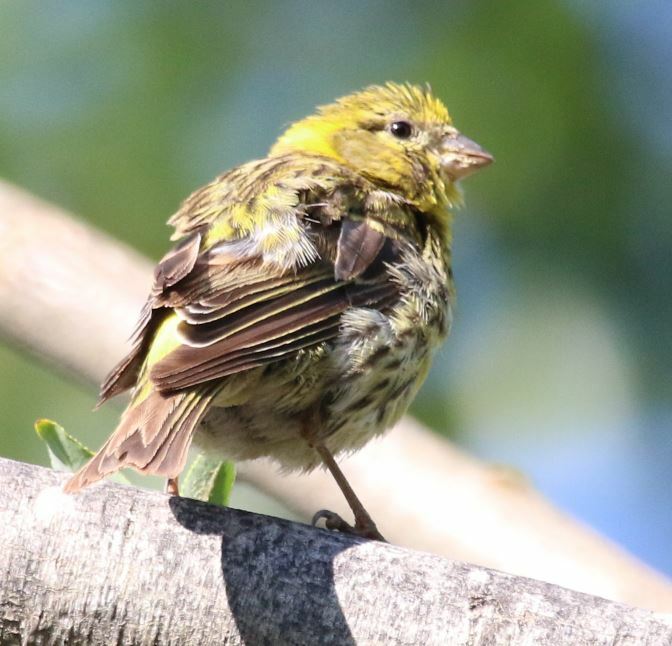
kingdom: Animalia
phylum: Chordata
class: Aves
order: Passeriformes
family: Fringillidae
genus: Serinus
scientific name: Serinus serinus
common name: European serin
